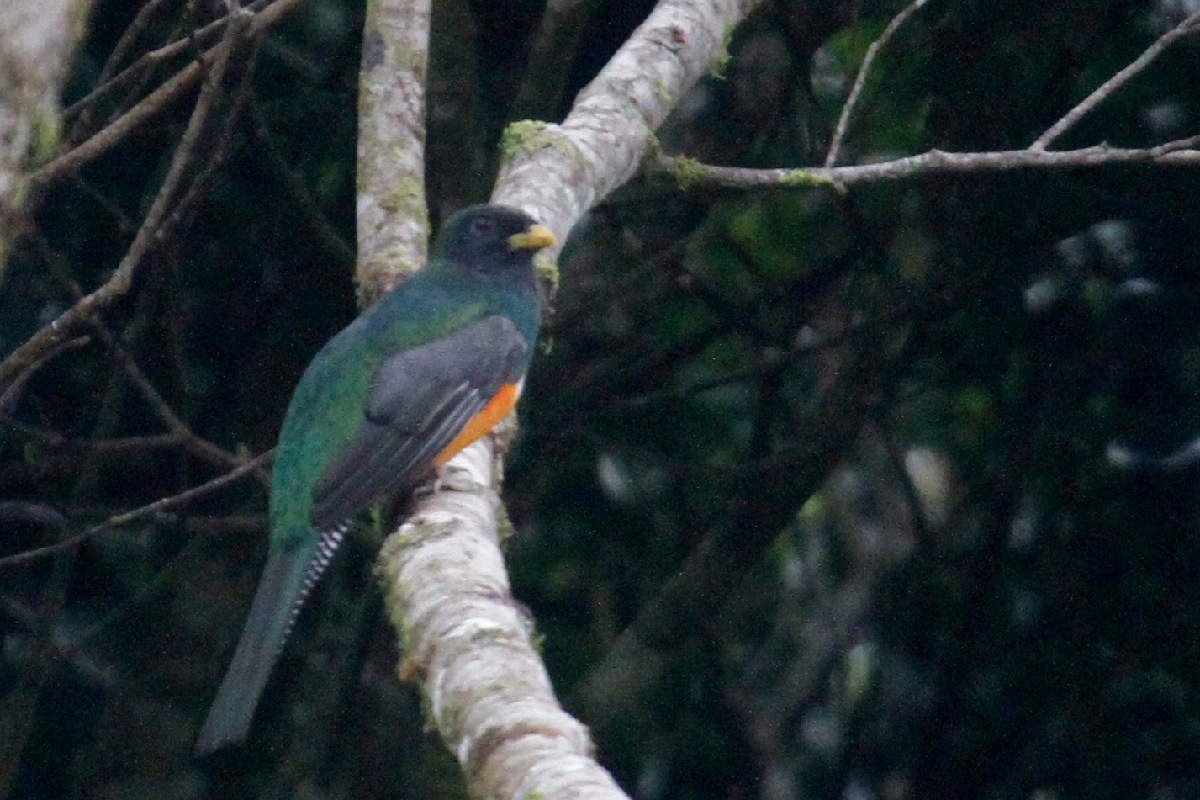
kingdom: Animalia
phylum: Chordata
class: Aves
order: Trogoniformes
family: Trogonidae
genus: Trogon
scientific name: Trogon collaris
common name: Collared trogon
